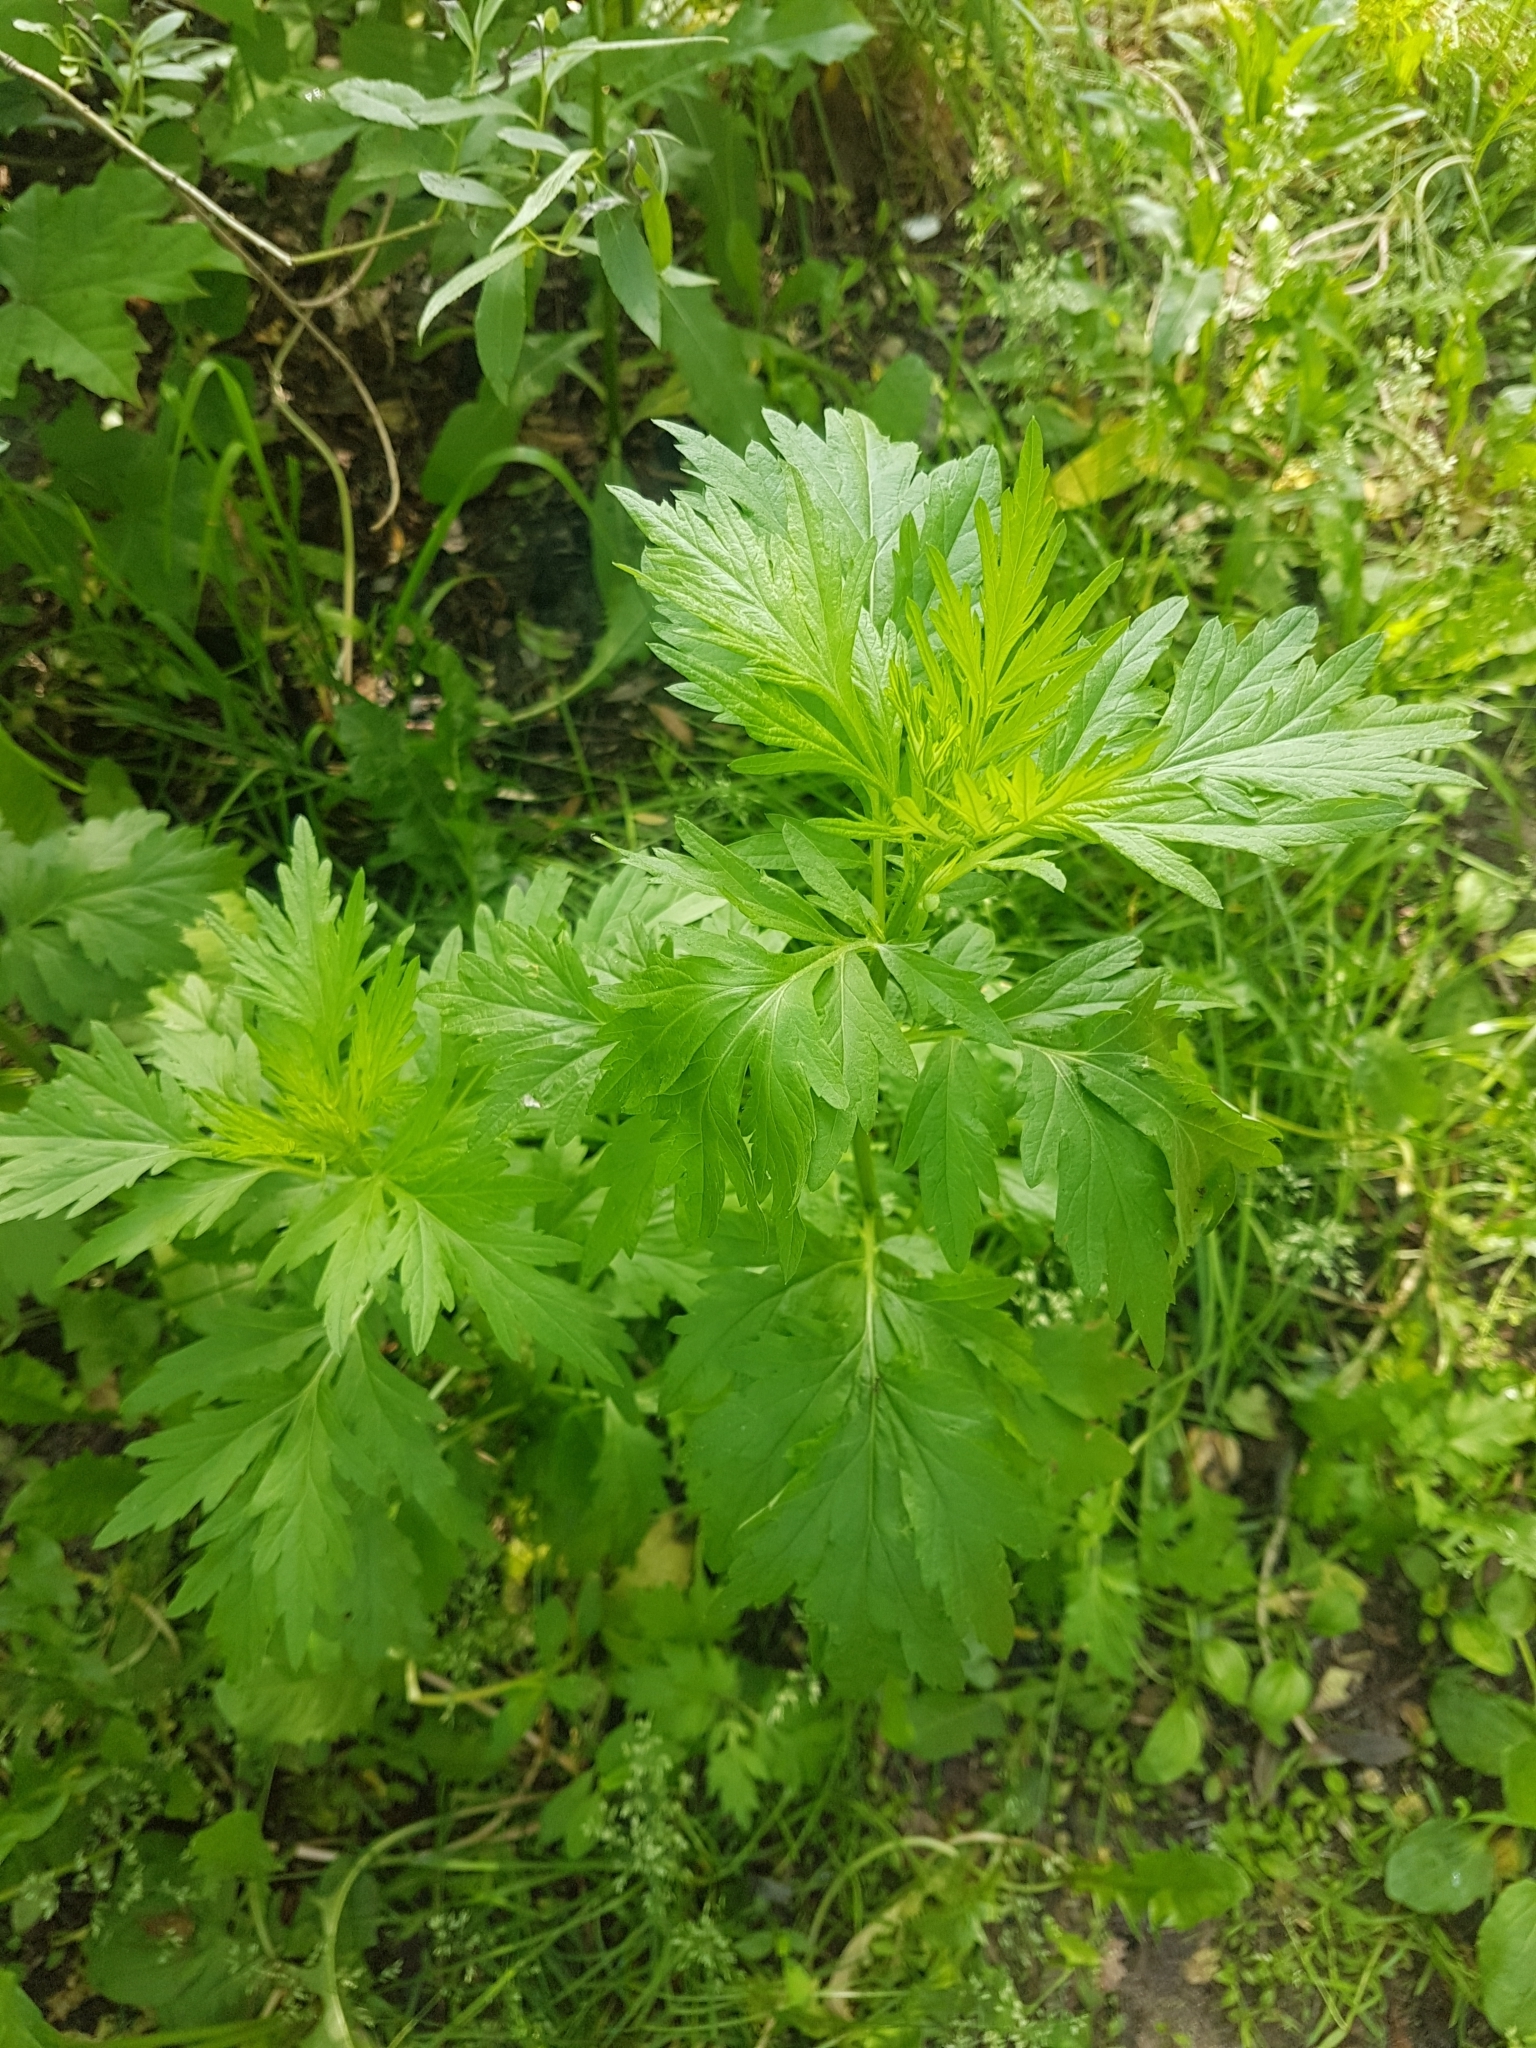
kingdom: Plantae
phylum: Tracheophyta
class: Magnoliopsida
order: Asterales
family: Asteraceae
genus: Artemisia
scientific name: Artemisia vulgaris
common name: Mugwort
